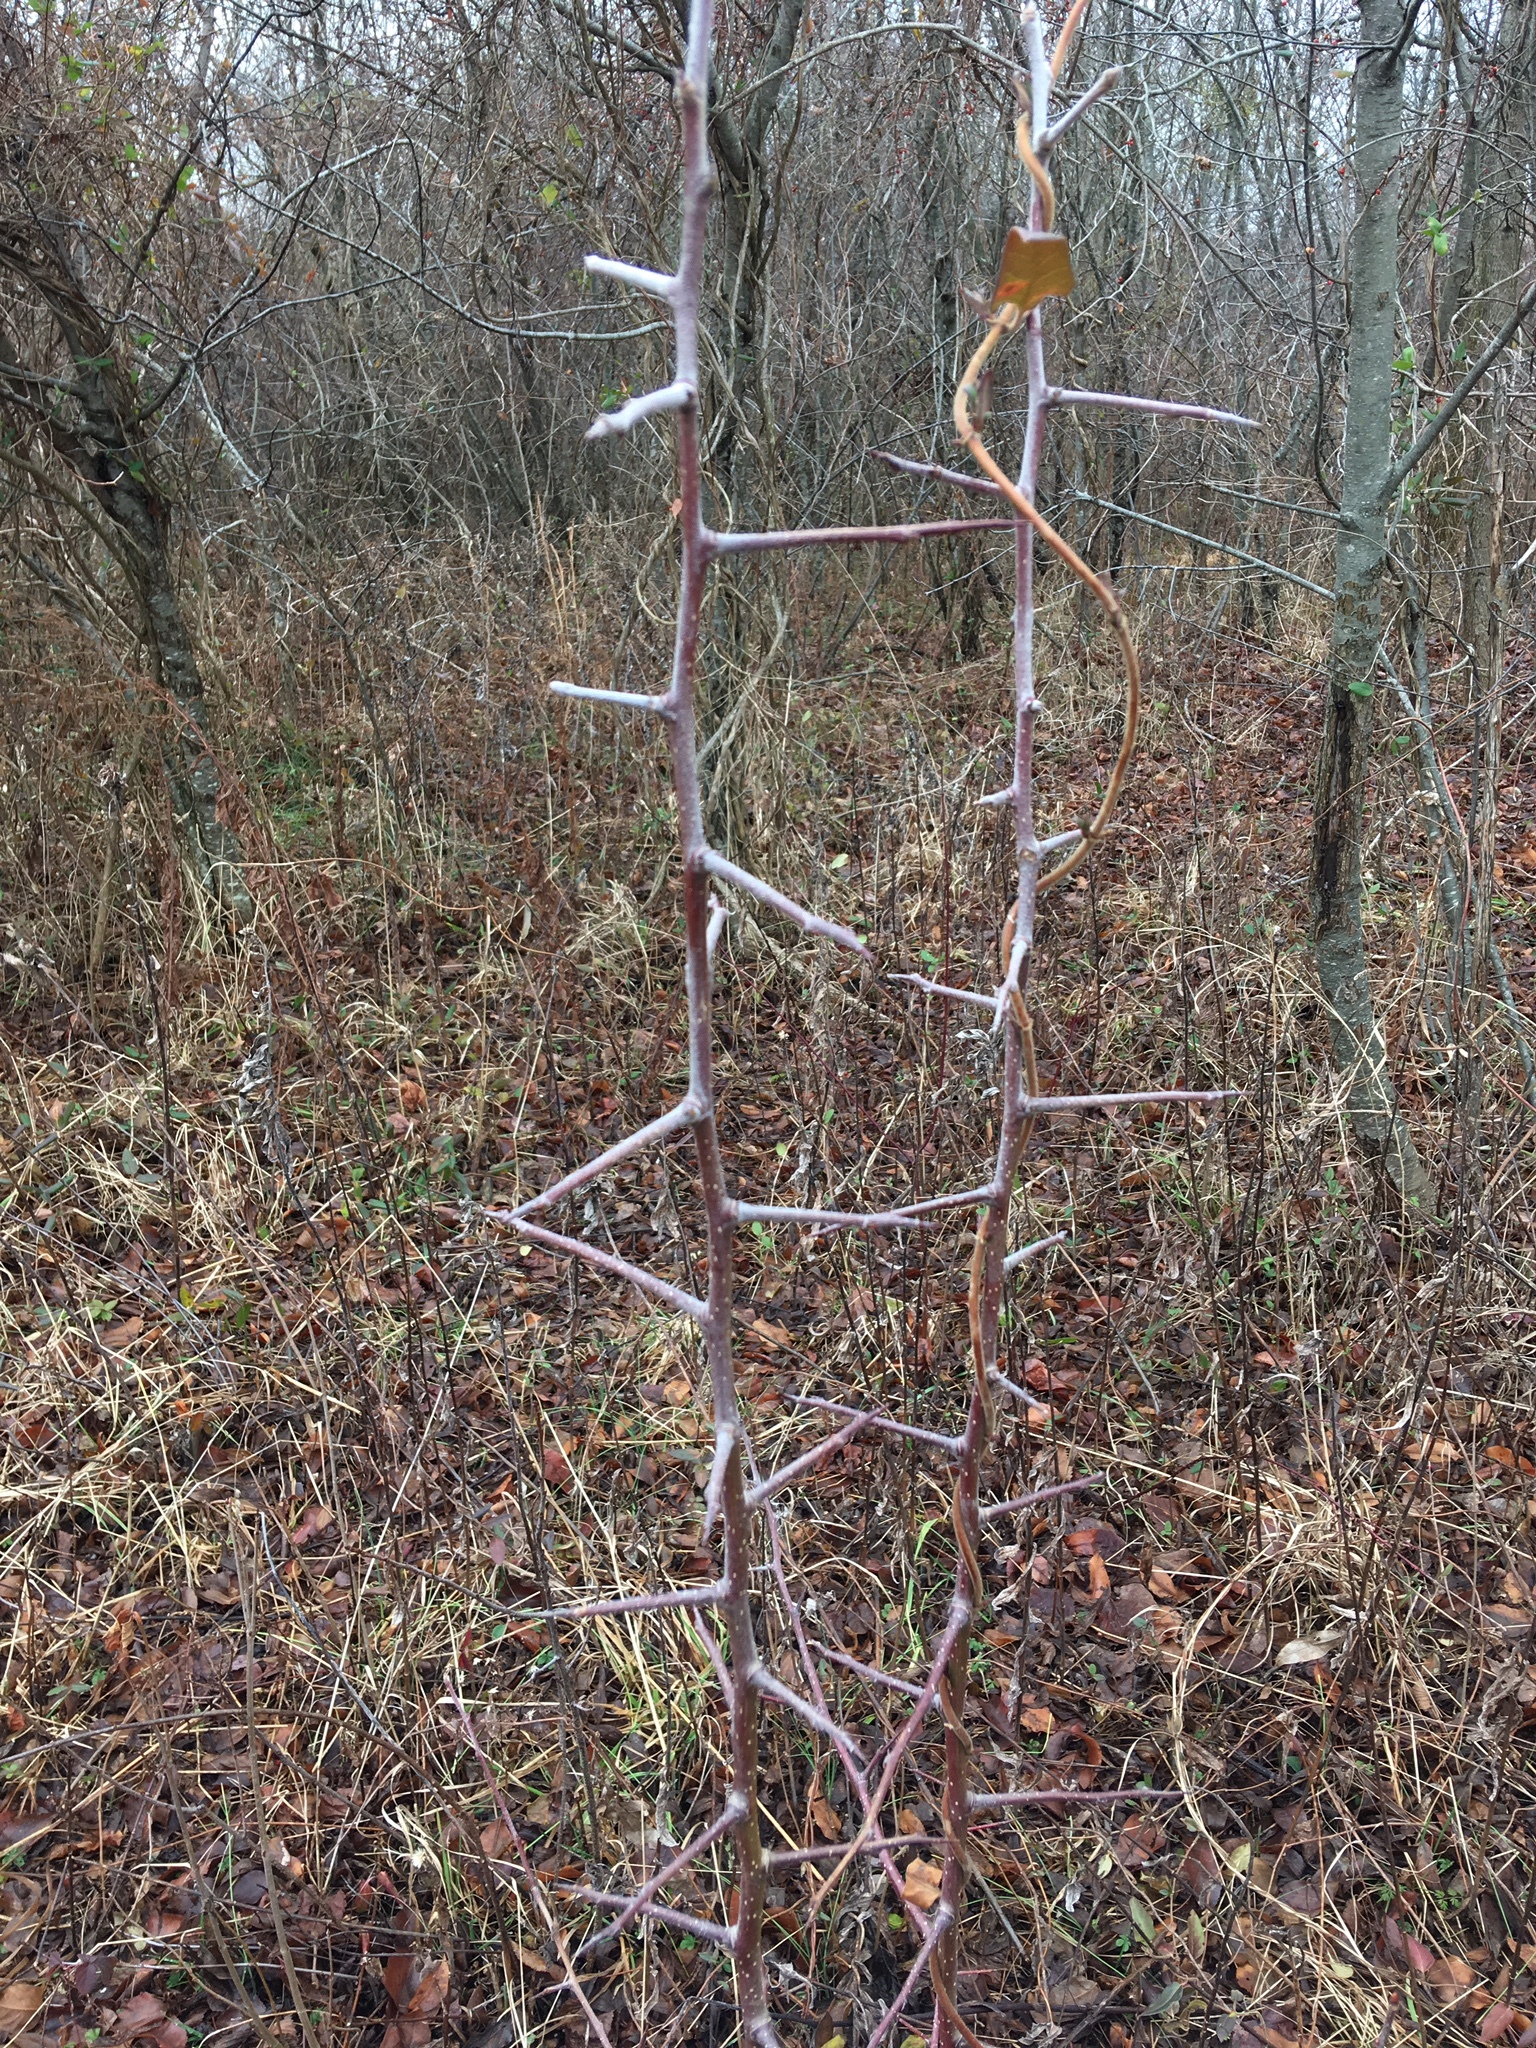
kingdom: Plantae
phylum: Tracheophyta
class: Magnoliopsida
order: Rosales
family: Rosaceae
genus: Pyrus
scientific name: Pyrus calleryana
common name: Callery pear
